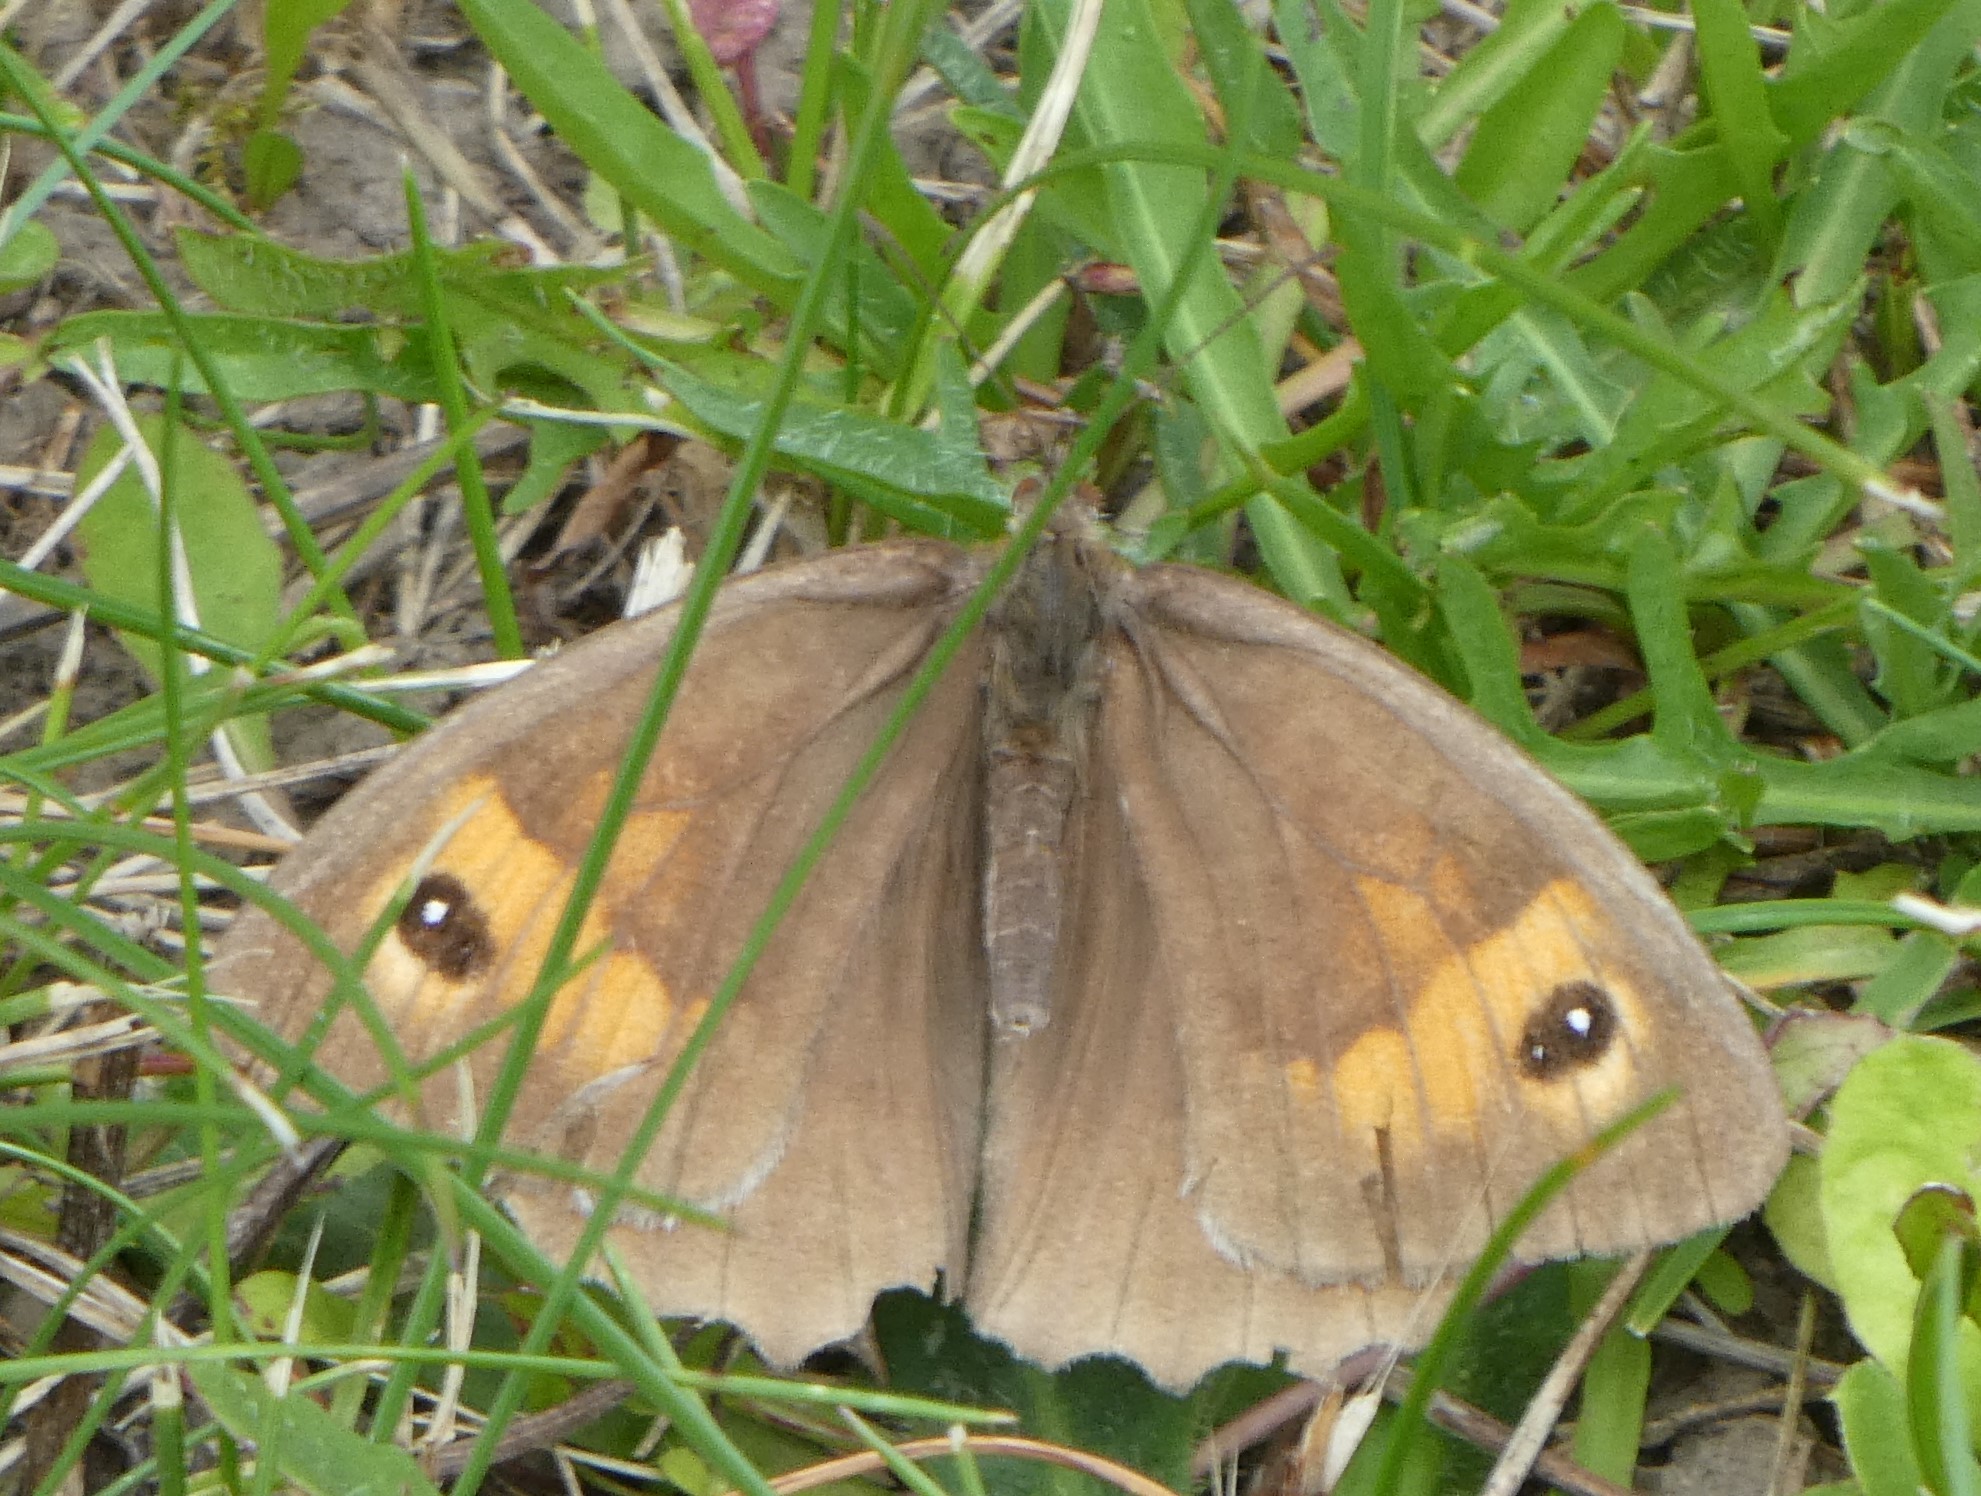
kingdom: Animalia
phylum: Arthropoda
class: Insecta
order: Lepidoptera
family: Nymphalidae
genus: Maniola
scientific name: Maniola jurtina
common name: Meadow brown
